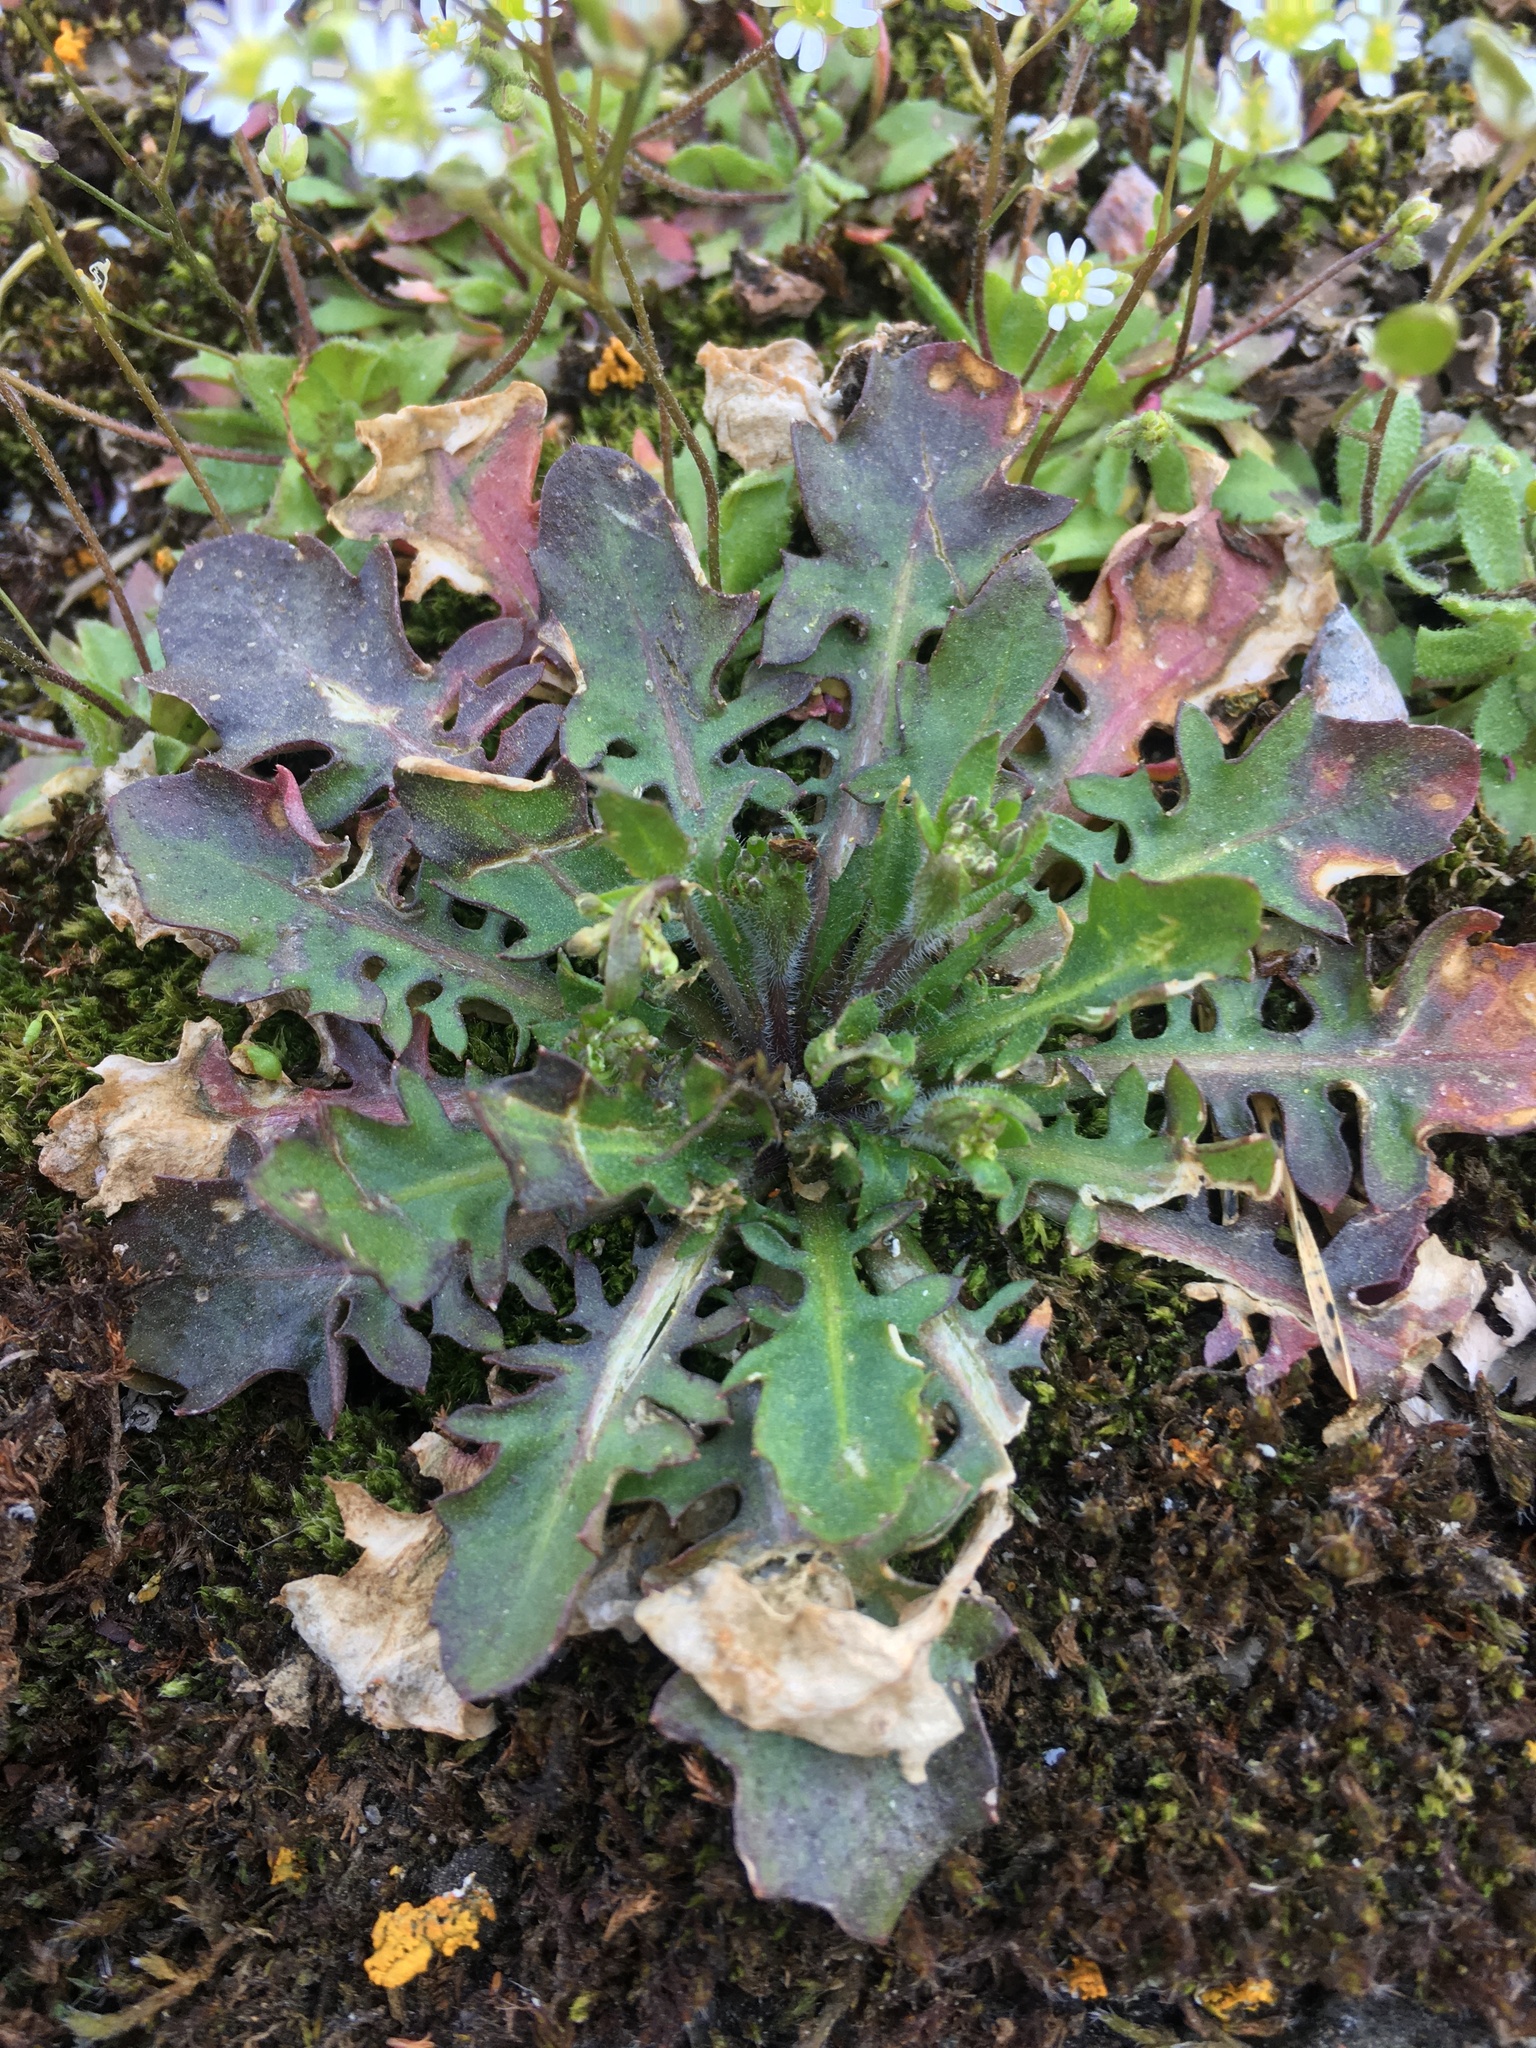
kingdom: Plantae
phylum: Tracheophyta
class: Magnoliopsida
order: Brassicales
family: Brassicaceae
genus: Arabidopsis
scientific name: Arabidopsis arenosa
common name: Sand rock-cress
